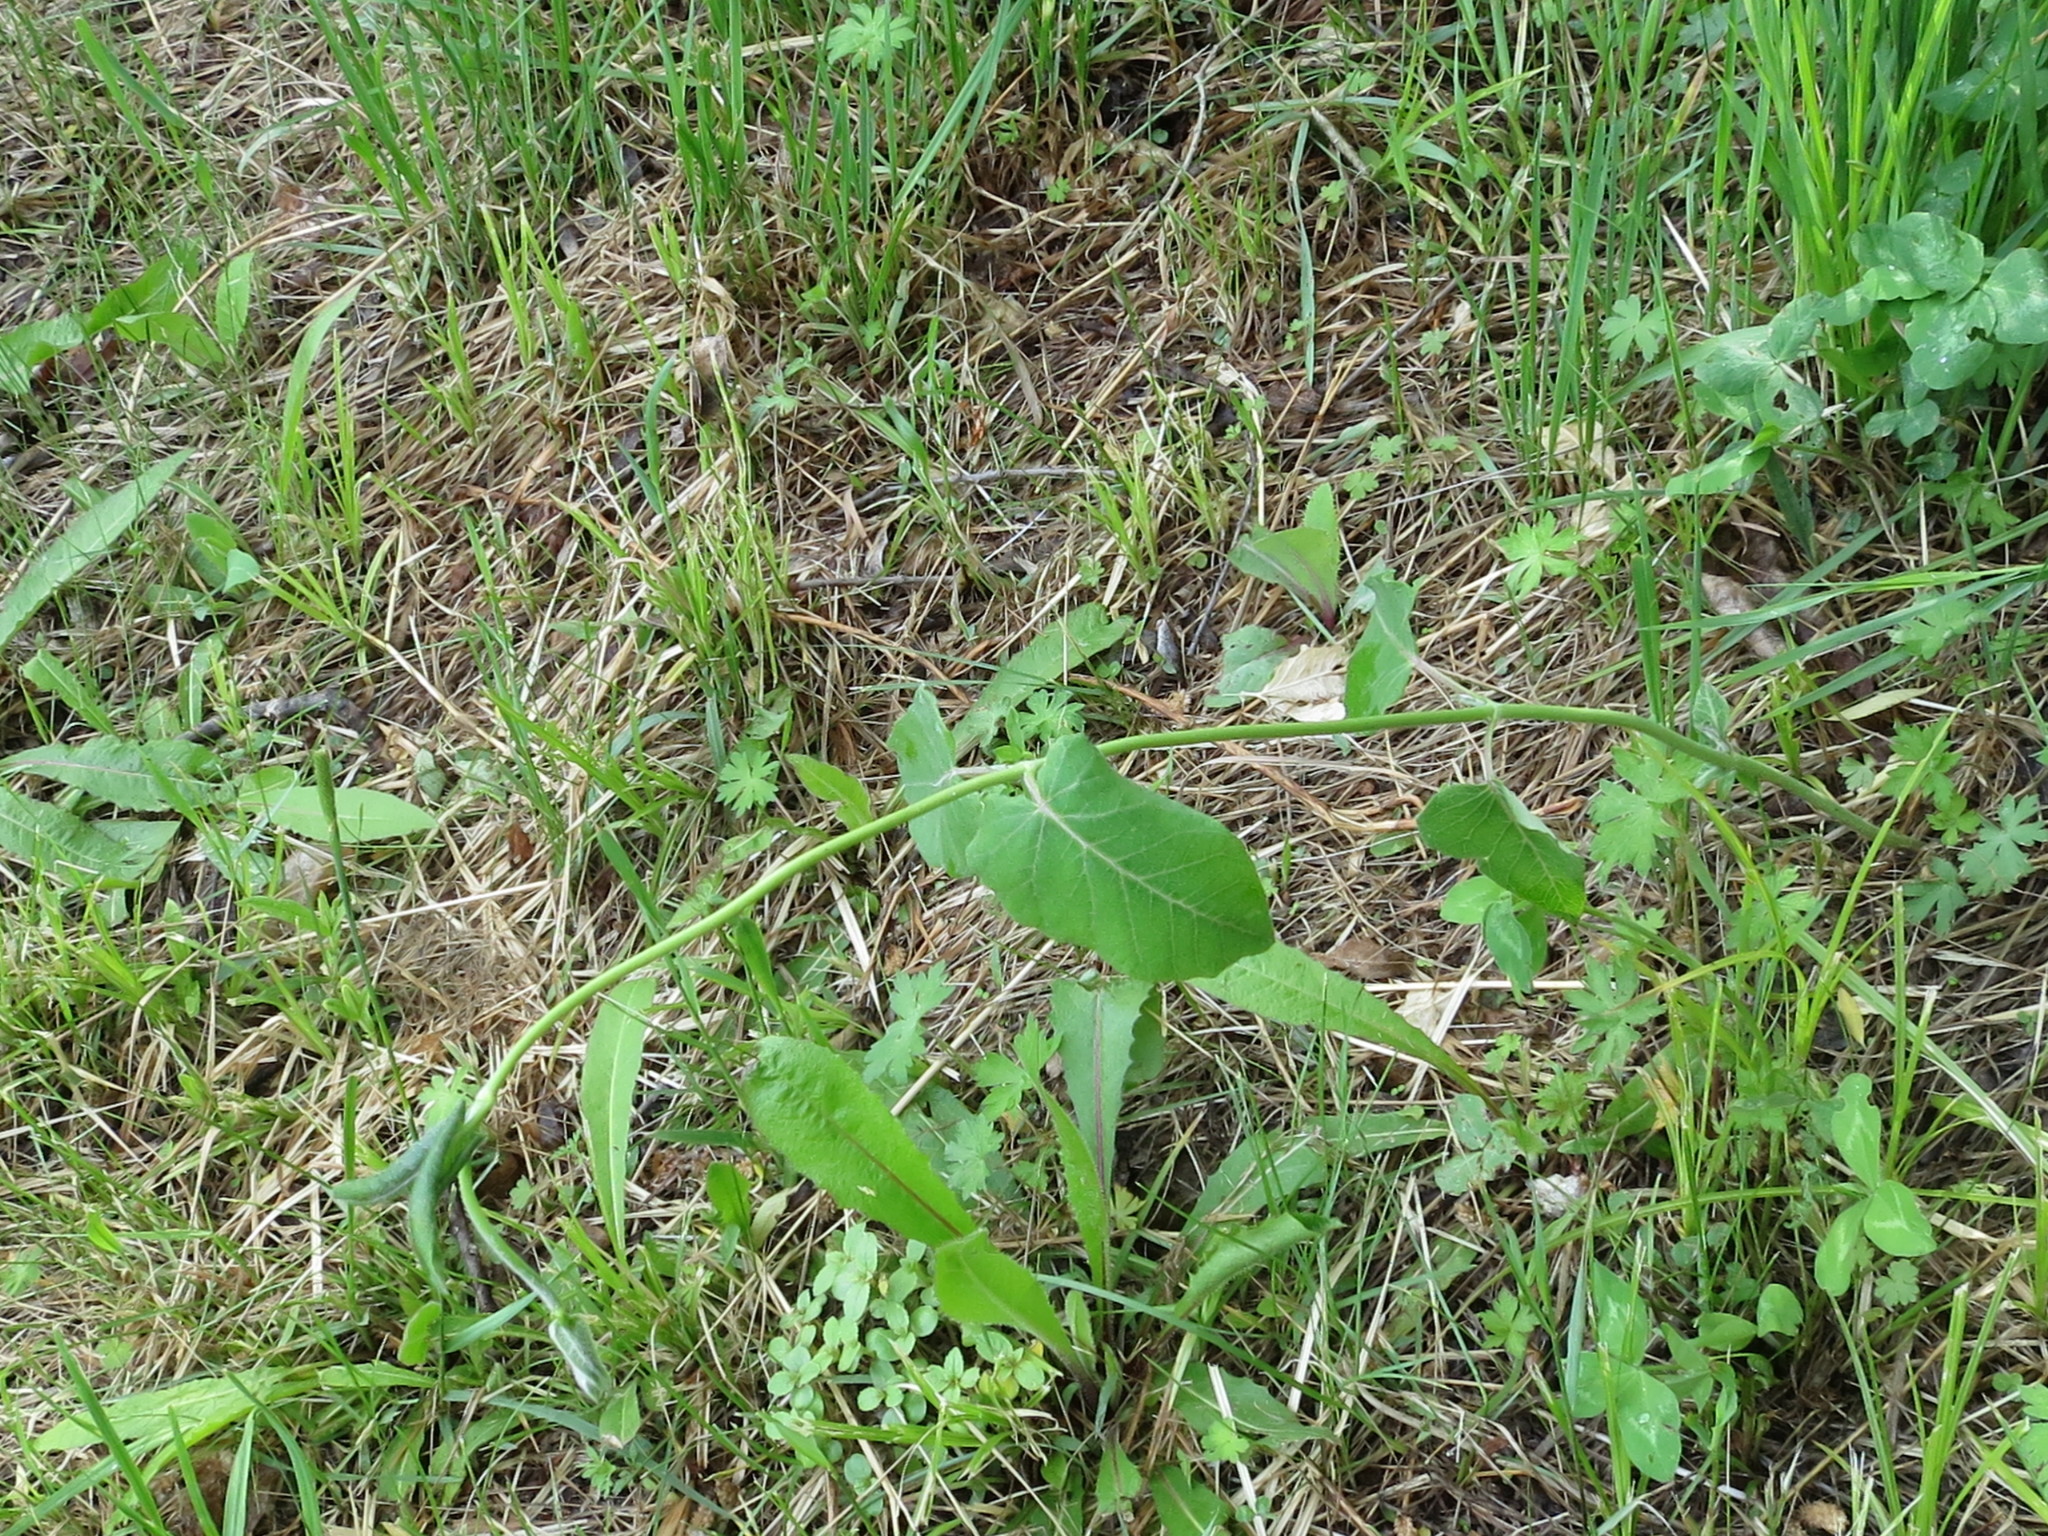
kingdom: Plantae
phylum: Tracheophyta
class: Magnoliopsida
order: Gentianales
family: Apocynaceae
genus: Cynanchum
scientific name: Cynanchum rostellatum
